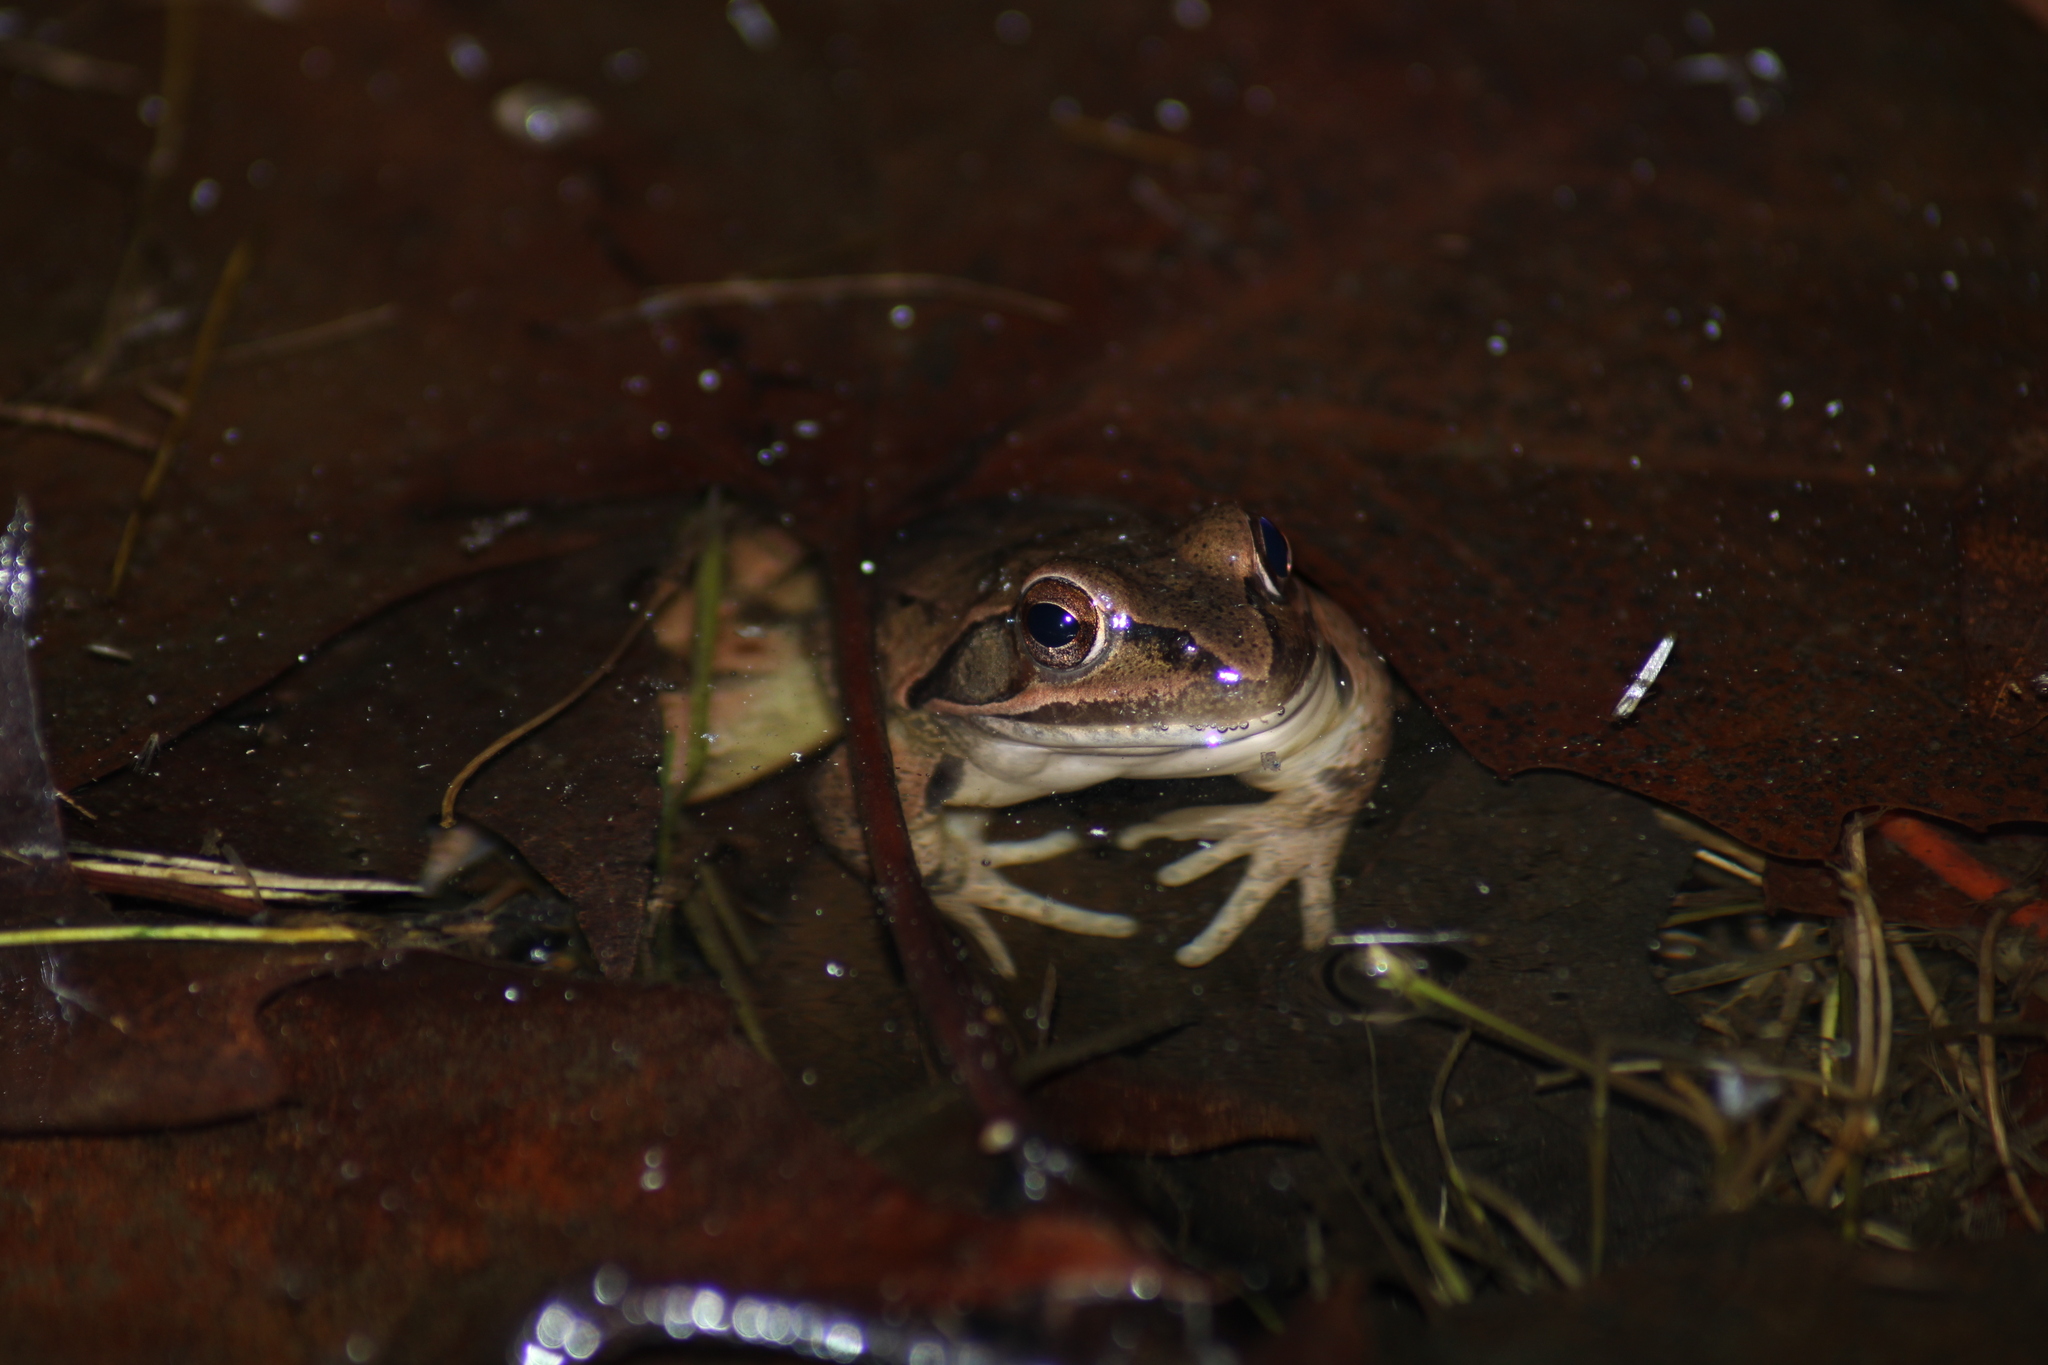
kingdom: Animalia
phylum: Chordata
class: Amphibia
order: Anura
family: Ranidae
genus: Rana
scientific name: Rana dalmatina
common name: Agile frog
